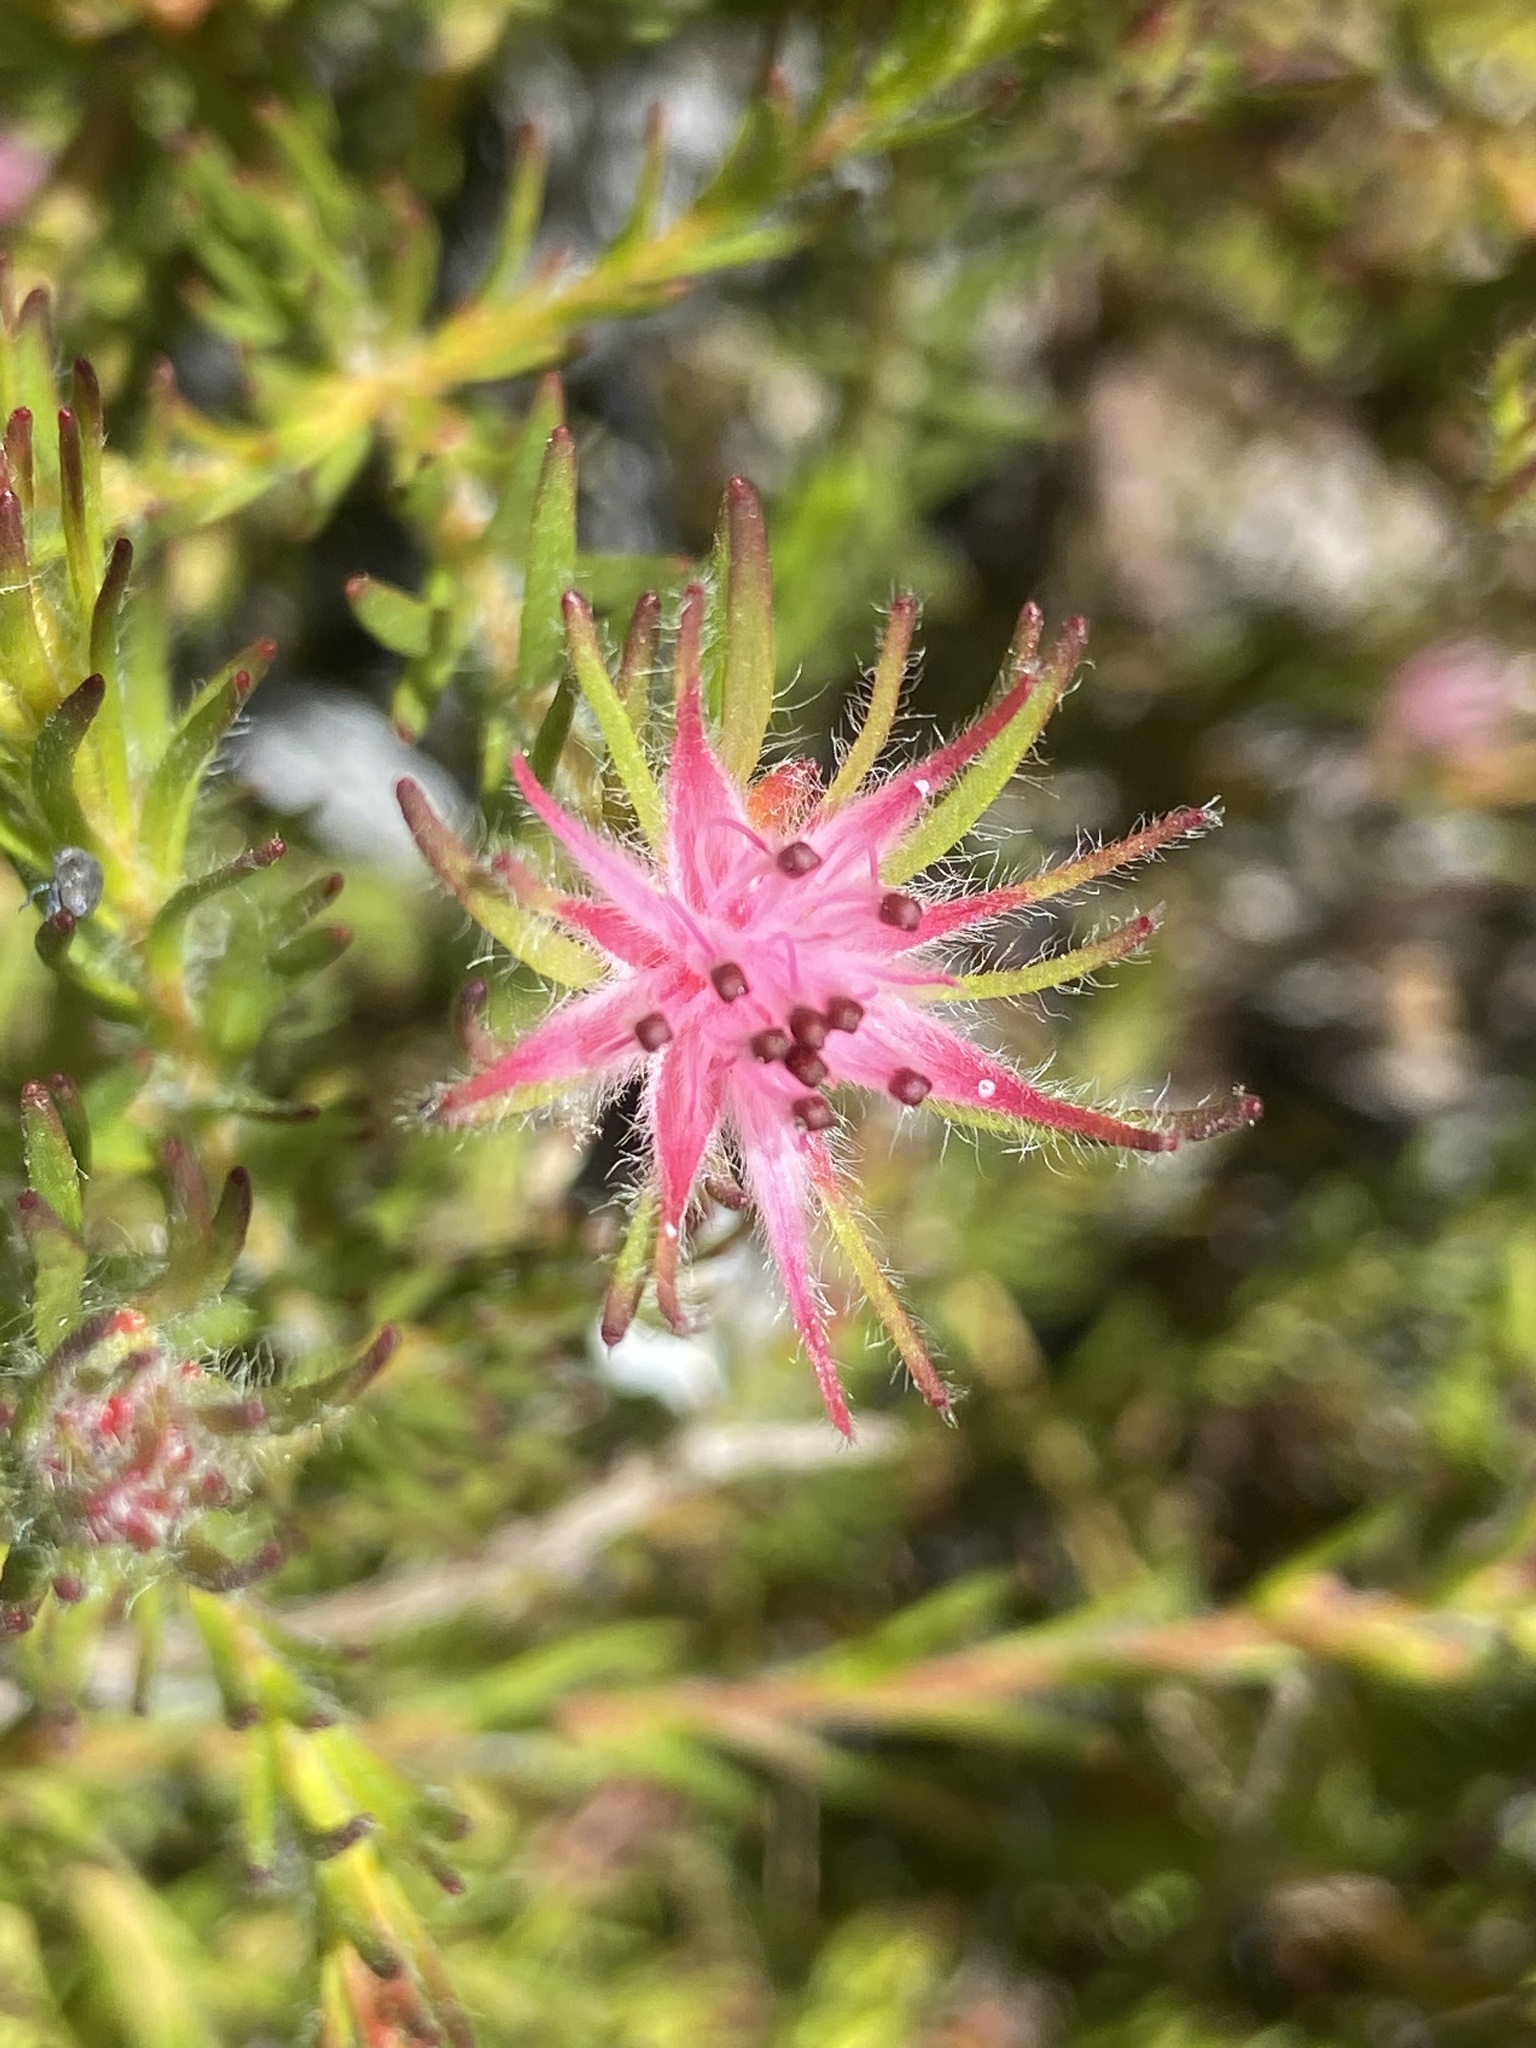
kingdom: Plantae
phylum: Tracheophyta
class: Magnoliopsida
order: Proteales
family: Proteaceae
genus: Diastella
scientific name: Diastella proteoides
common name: Flats silkypuff
